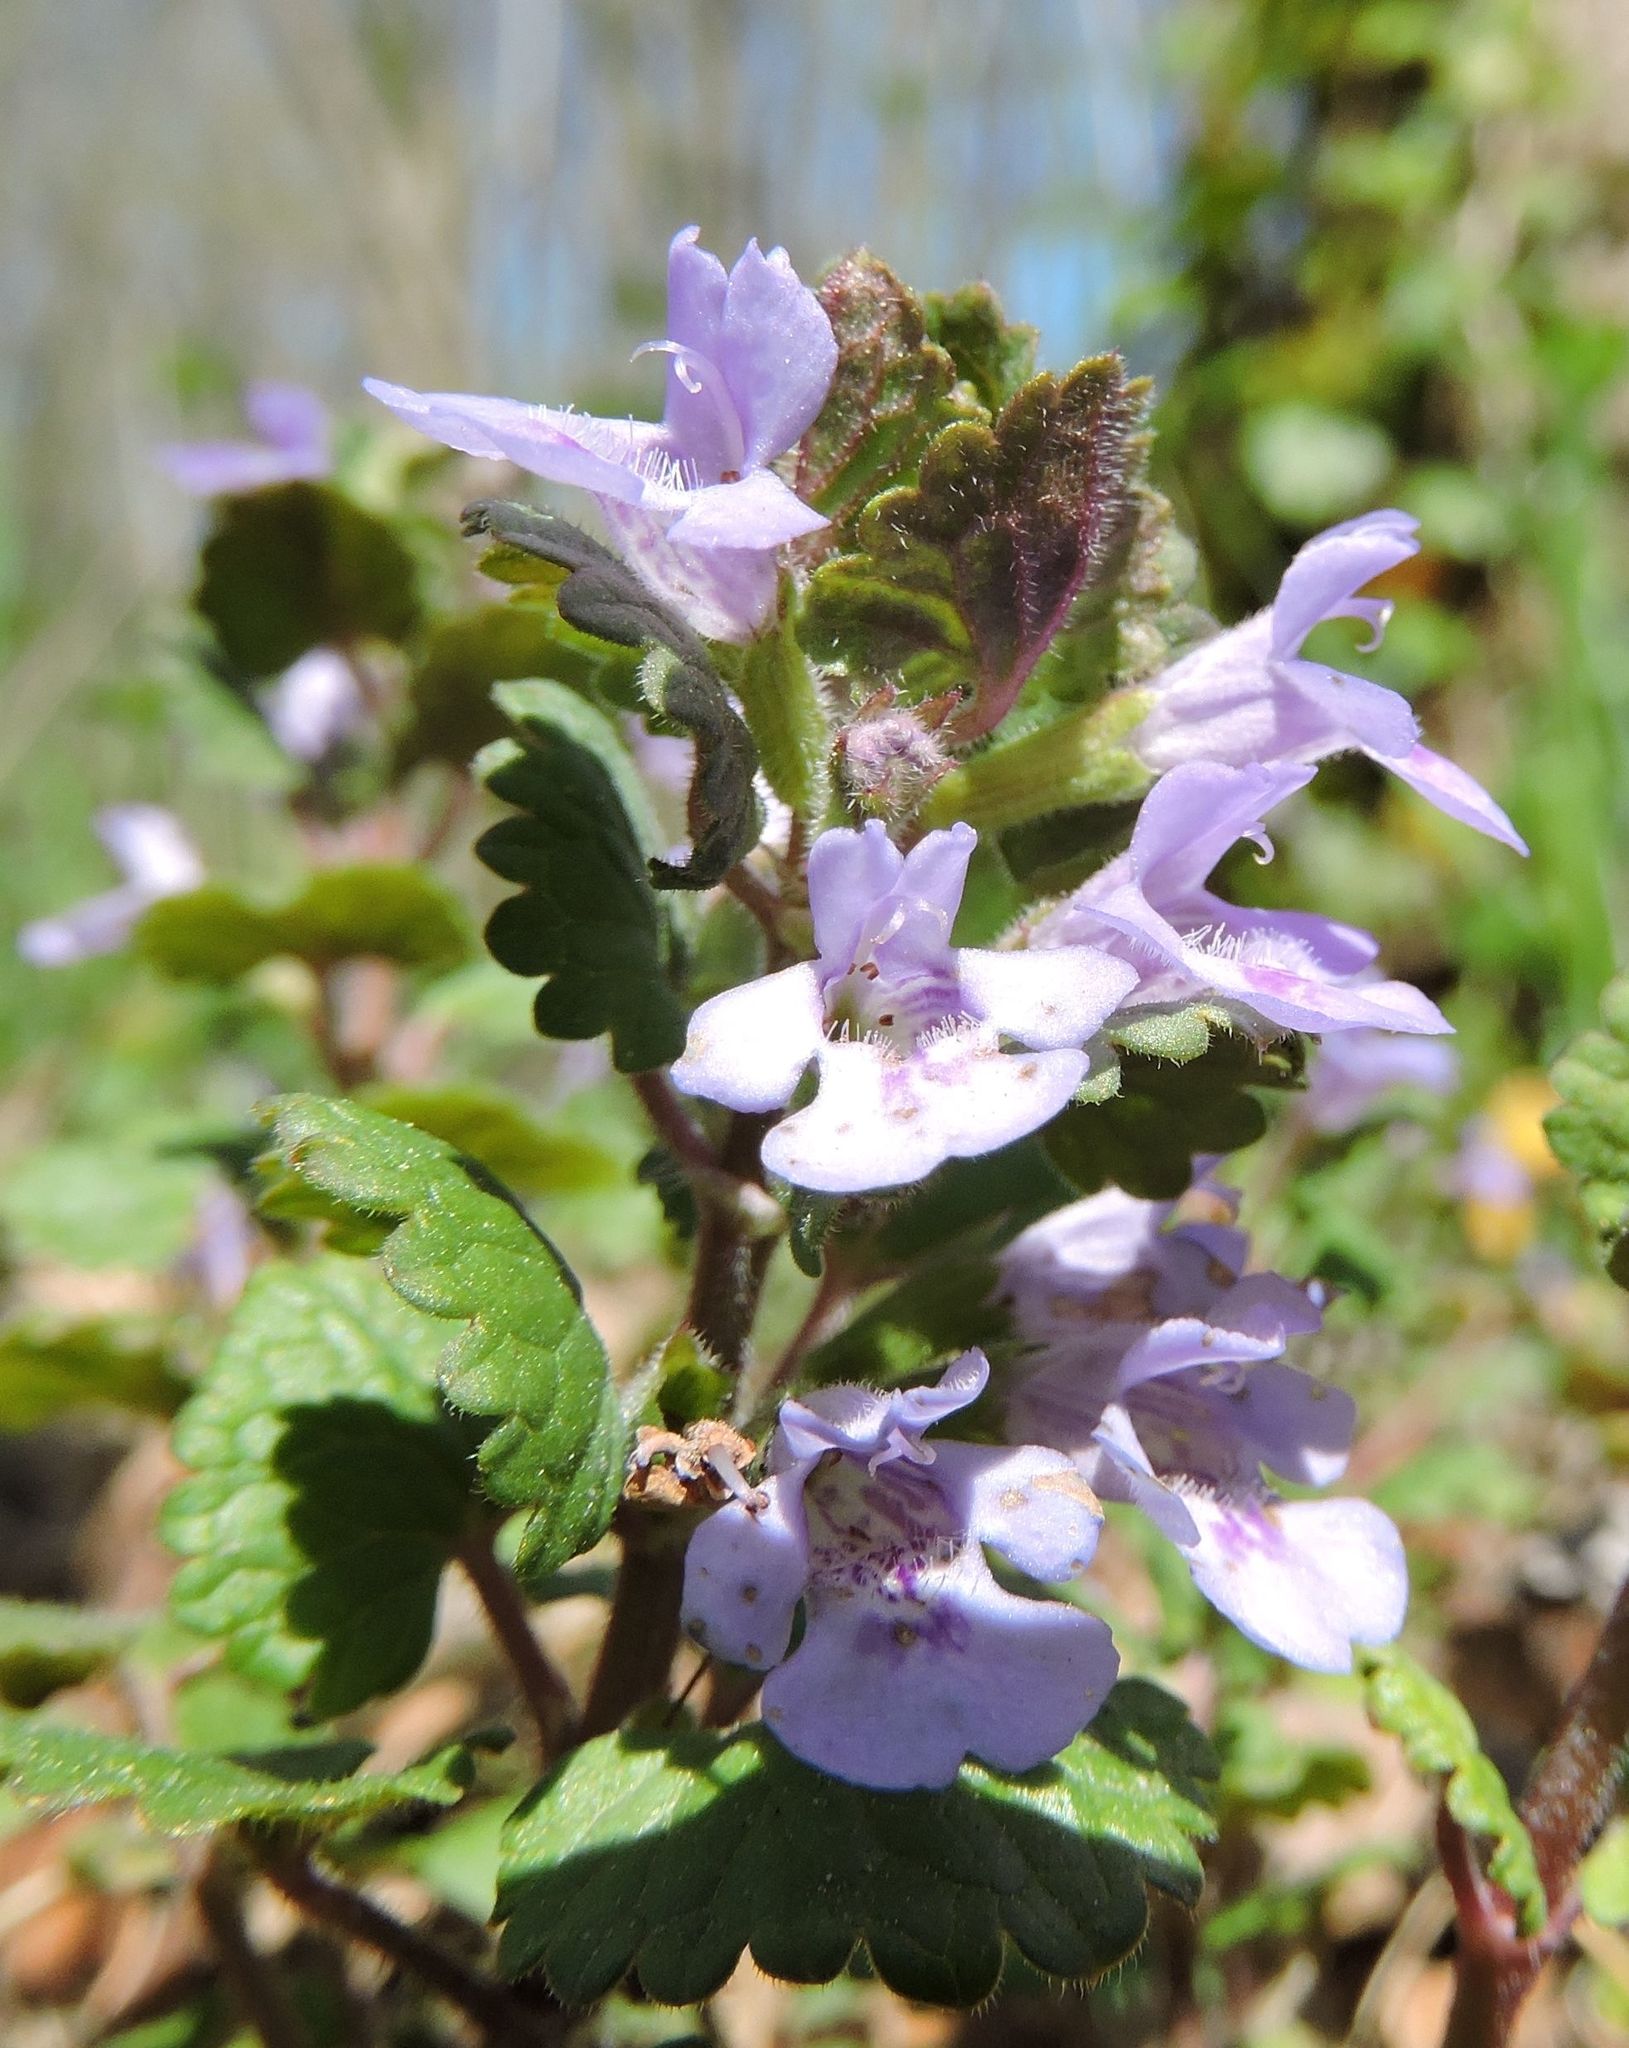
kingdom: Plantae
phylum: Tracheophyta
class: Magnoliopsida
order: Lamiales
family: Lamiaceae
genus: Glechoma
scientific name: Glechoma hederacea
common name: Ground ivy
